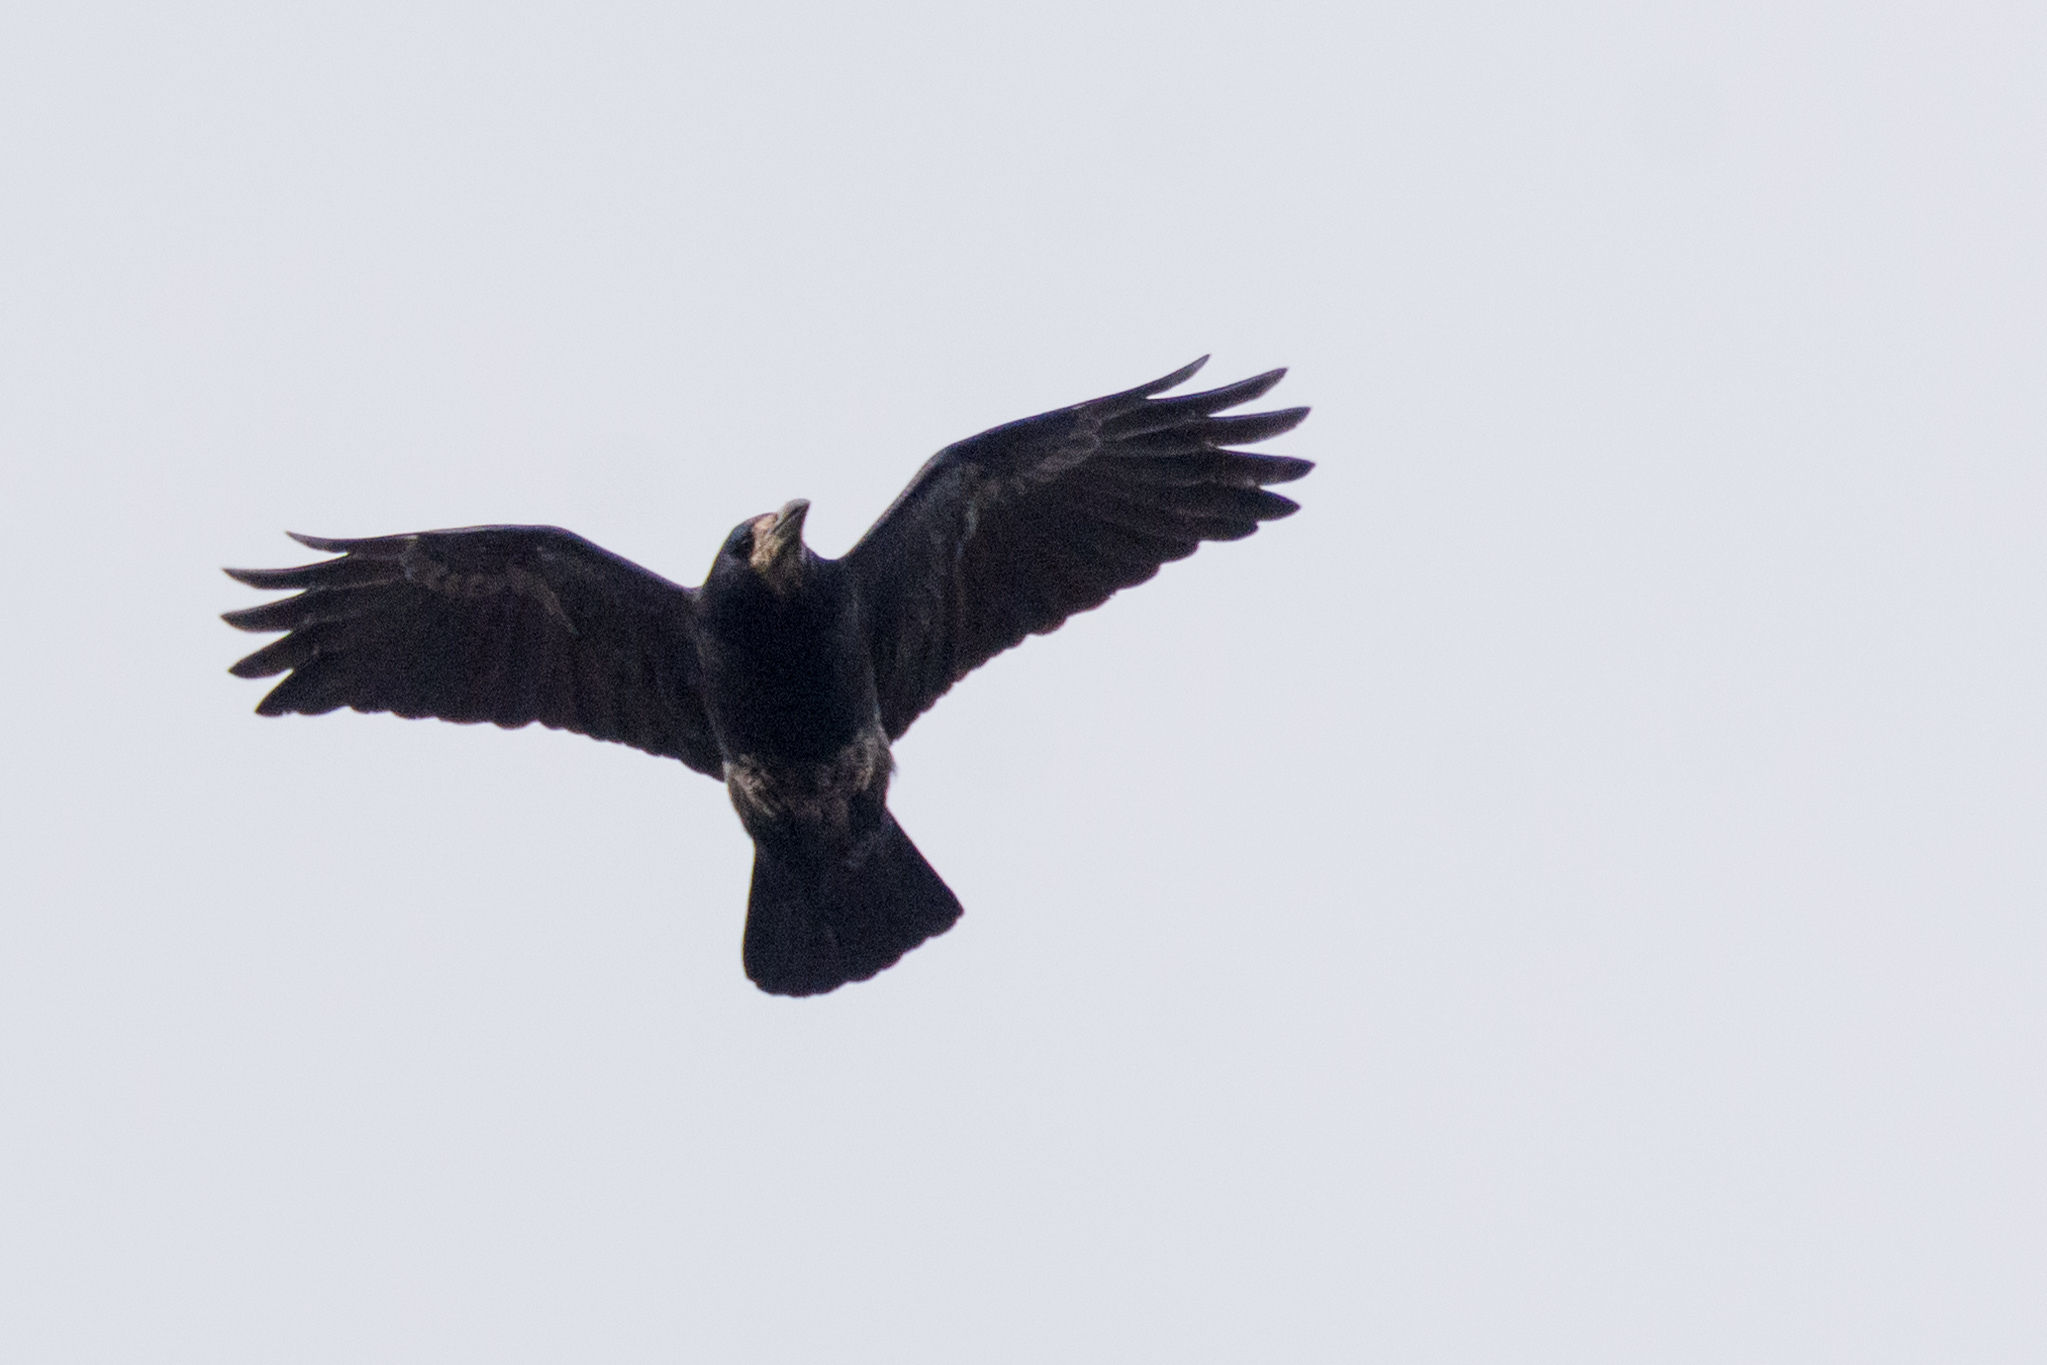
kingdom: Animalia
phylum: Chordata
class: Aves
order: Passeriformes
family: Corvidae
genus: Corvus
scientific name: Corvus frugilegus
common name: Rook
